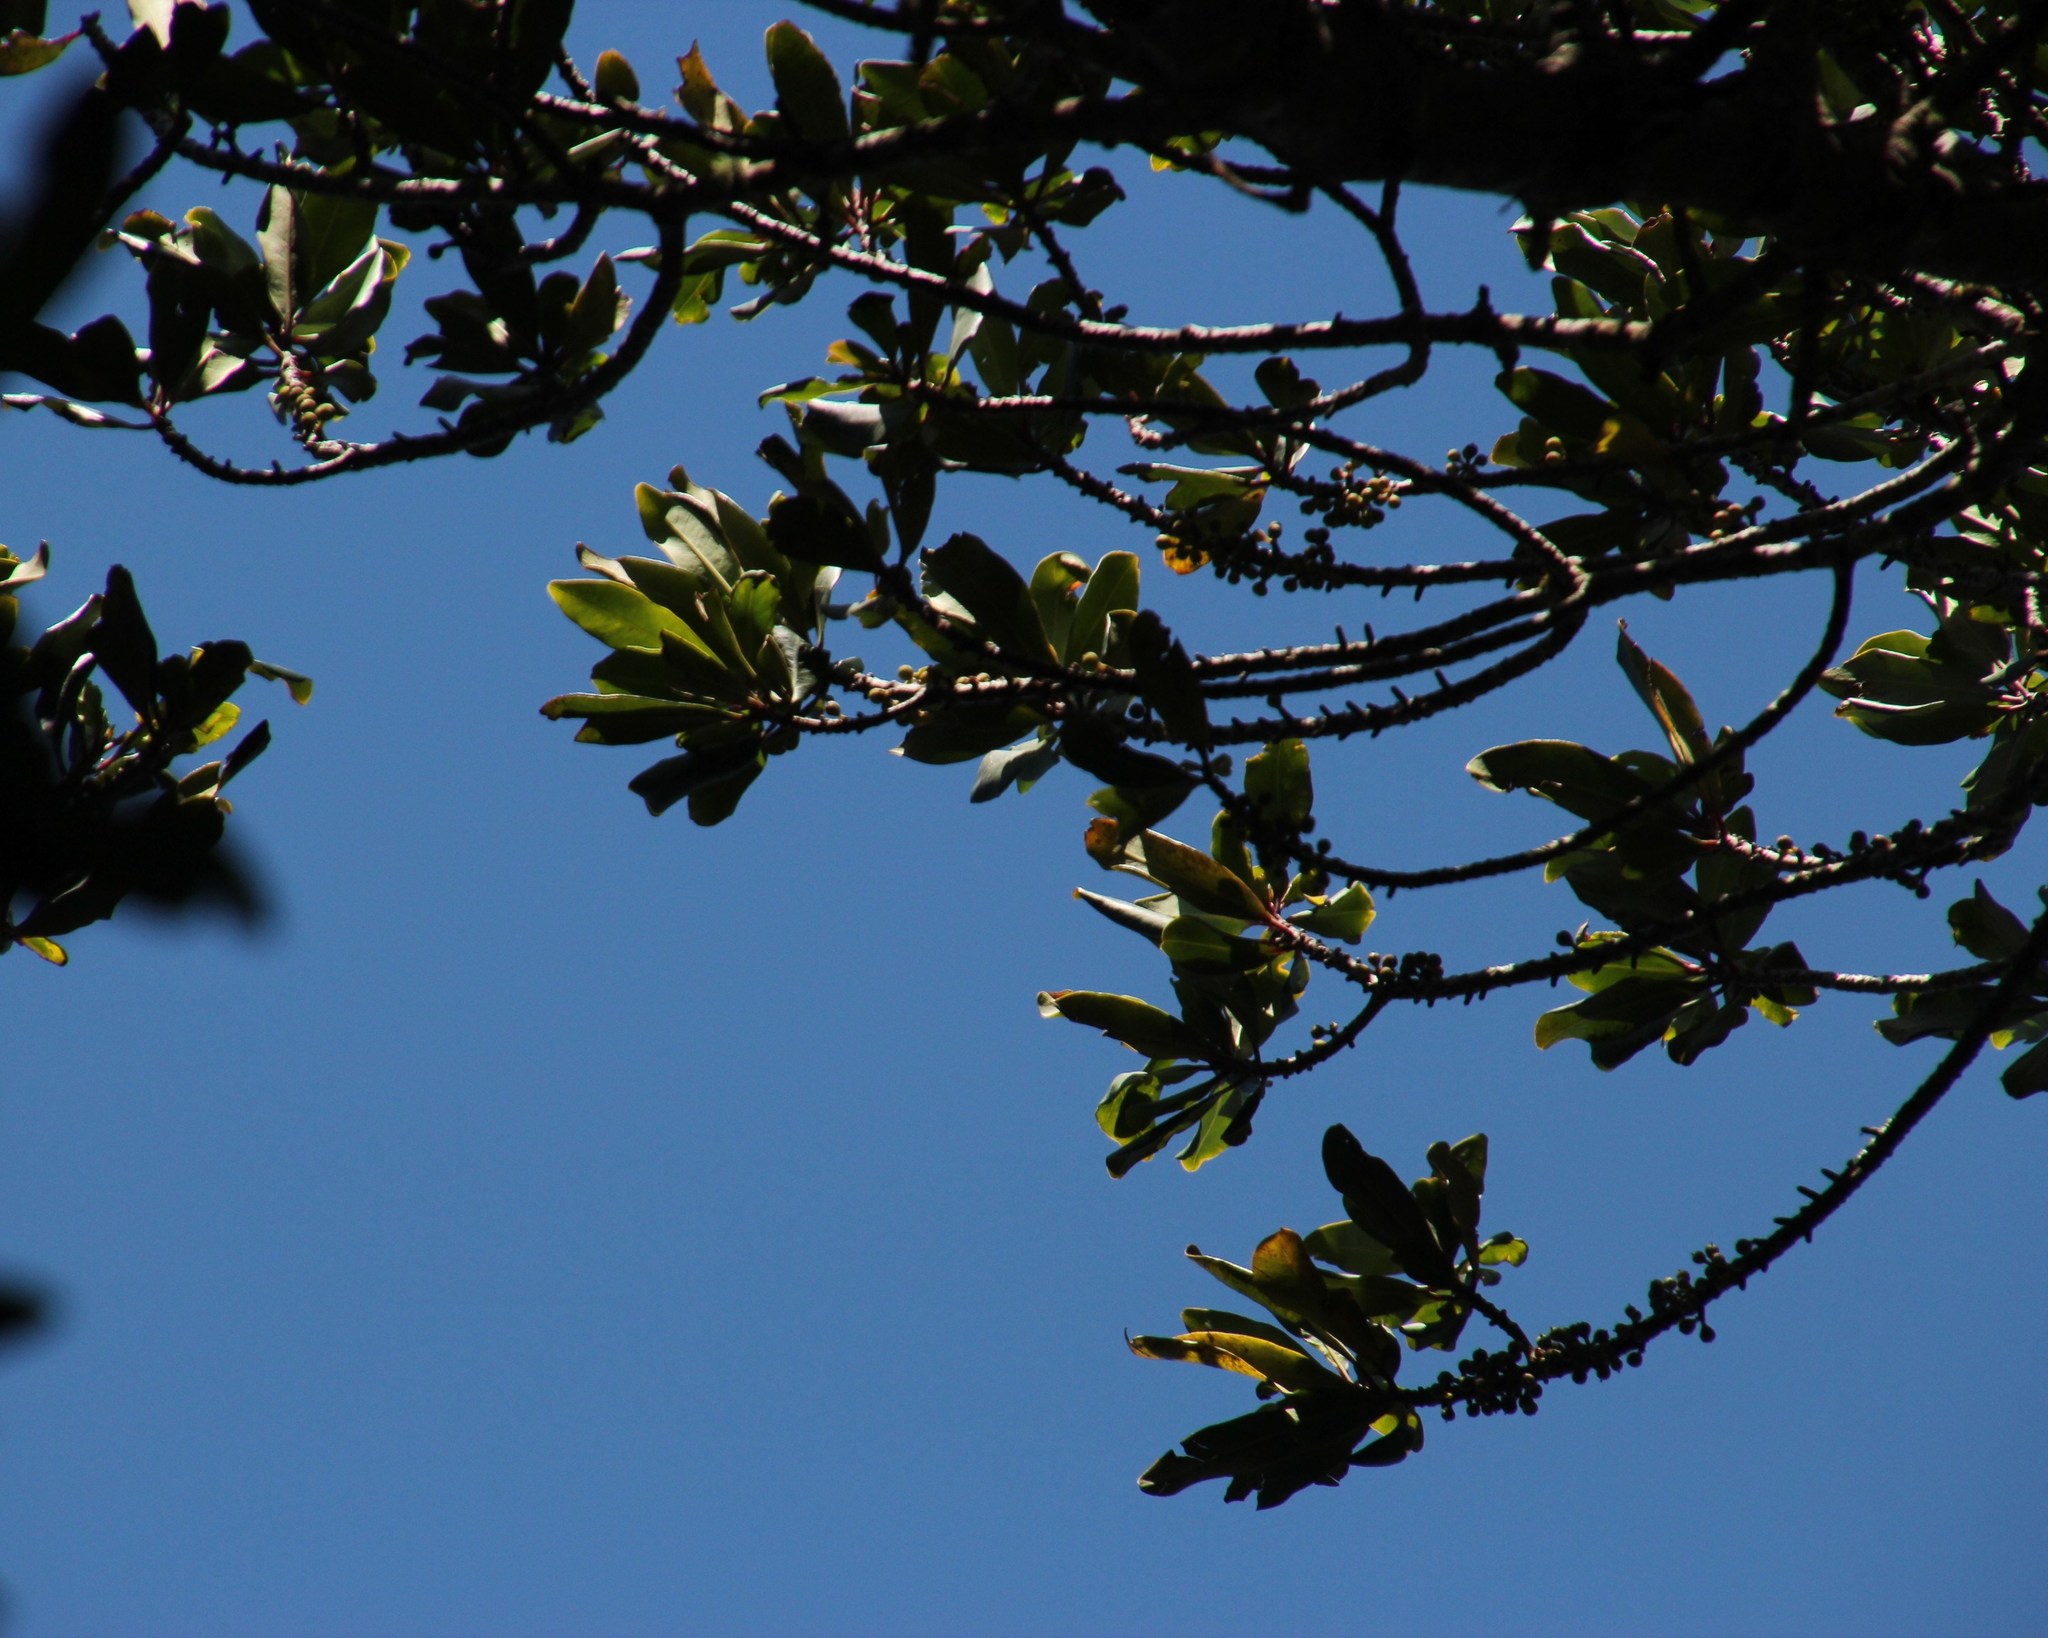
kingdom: Plantae
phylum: Tracheophyta
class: Magnoliopsida
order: Ericales
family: Primulaceae
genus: Myrsine
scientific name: Myrsine melanophloeos
